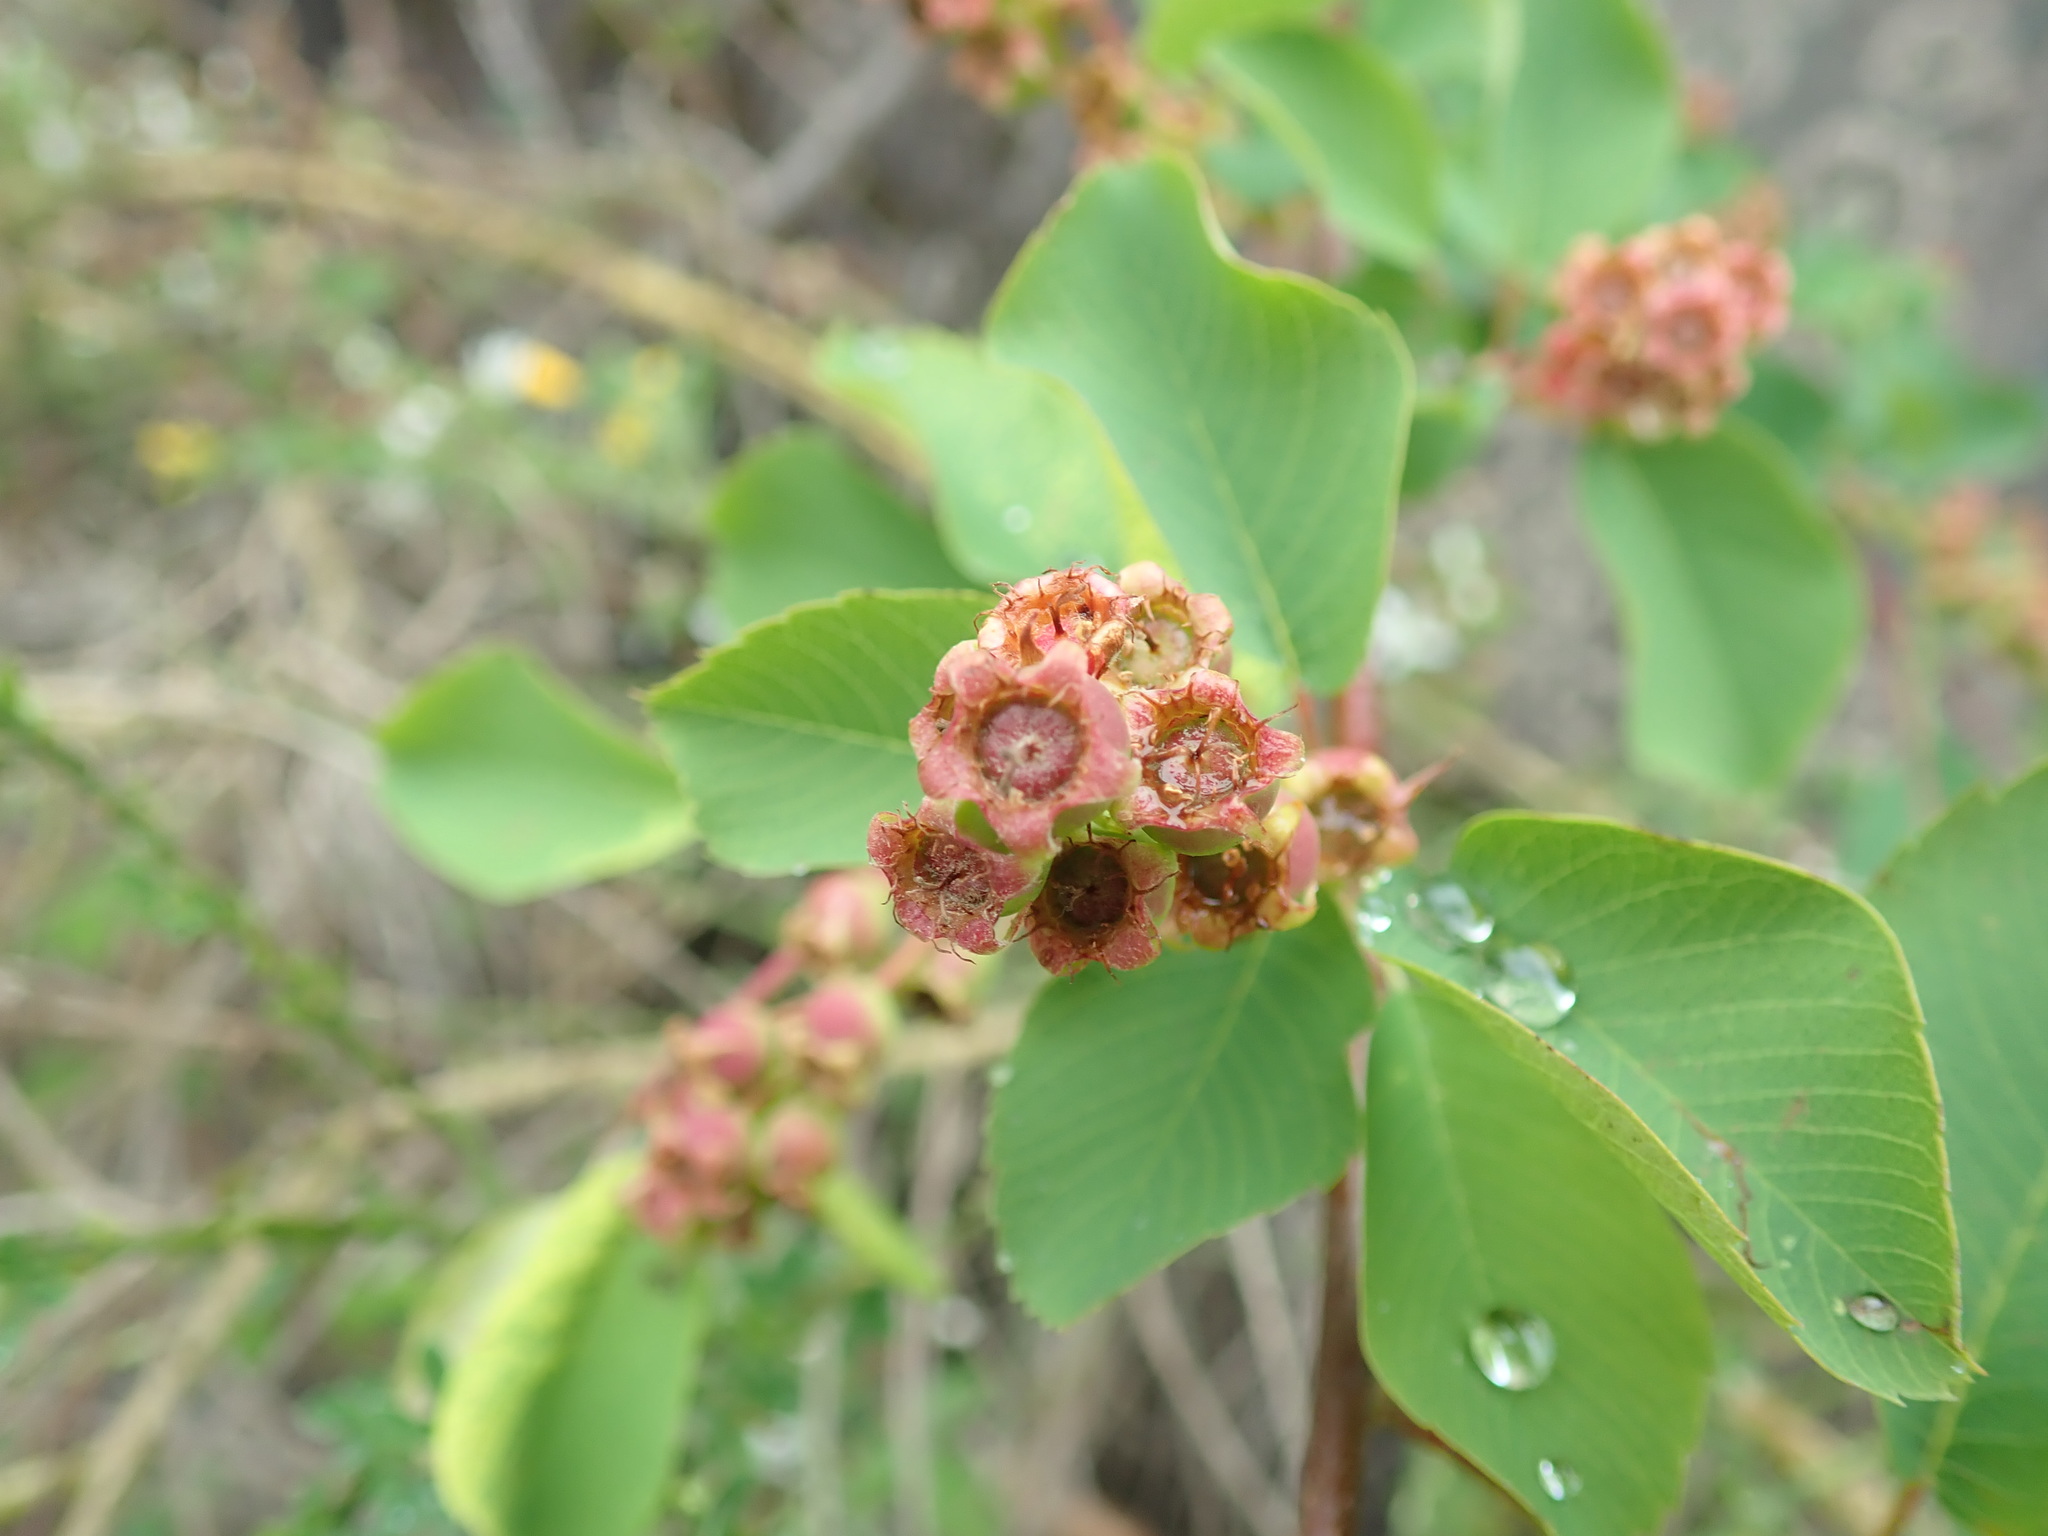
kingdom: Plantae
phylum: Tracheophyta
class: Magnoliopsida
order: Rosales
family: Rosaceae
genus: Amelanchier
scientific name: Amelanchier alnifolia
